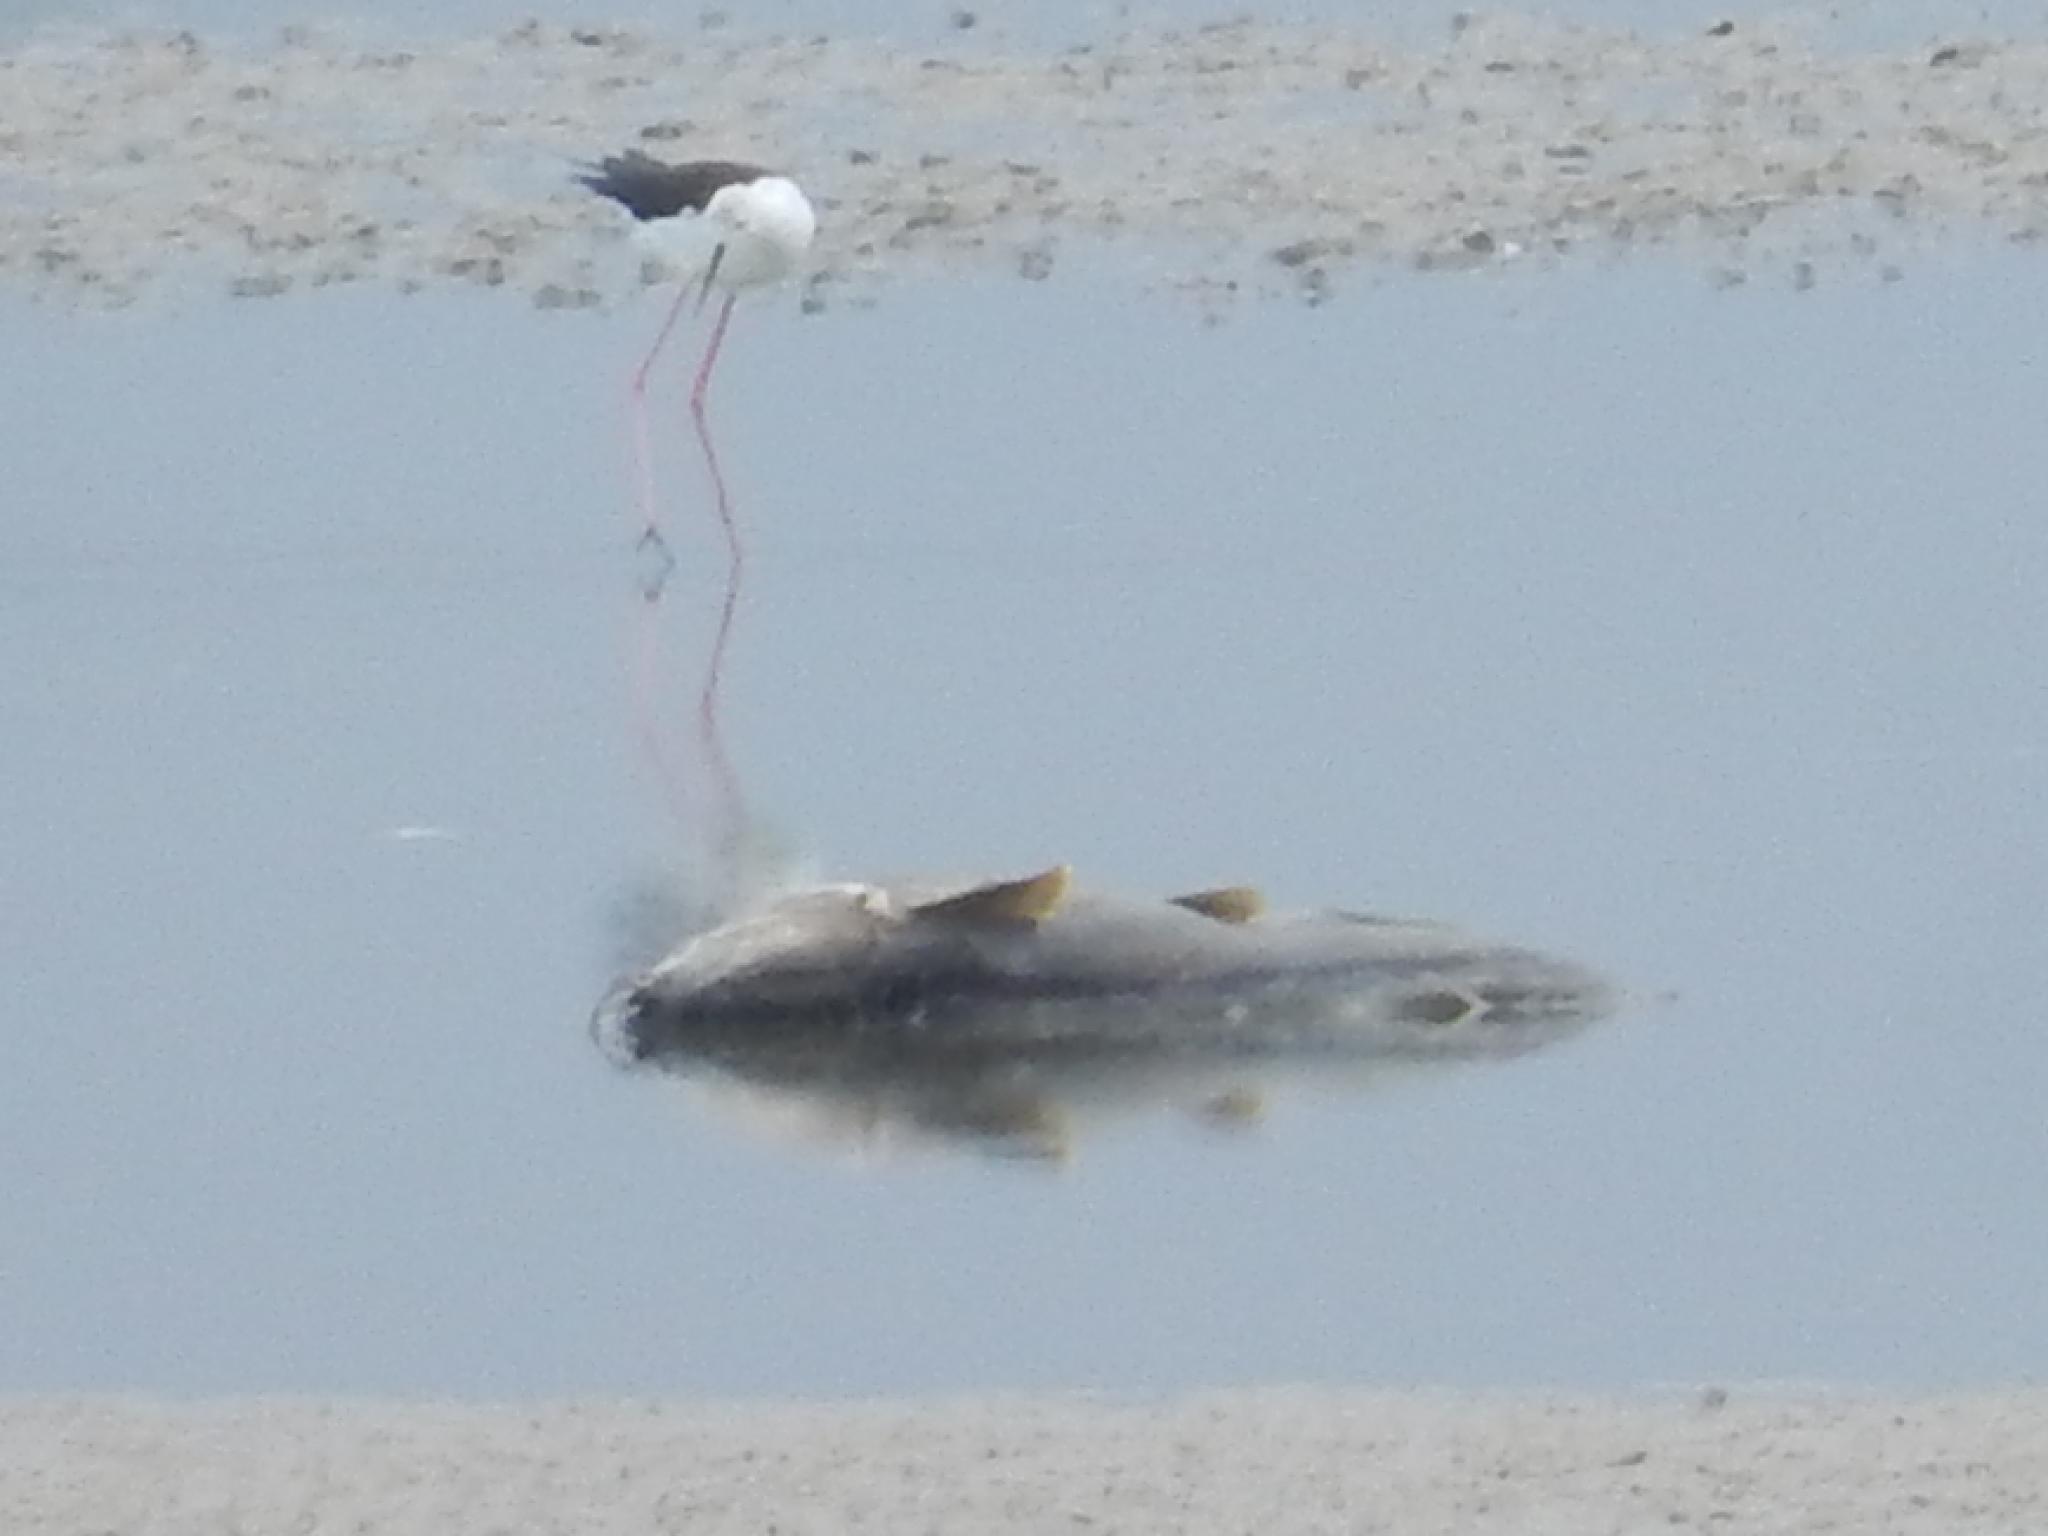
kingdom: Animalia
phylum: Chordata
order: Siluriformes
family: Clariidae
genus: Clarias
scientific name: Clarias gariepinus
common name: African catfish
